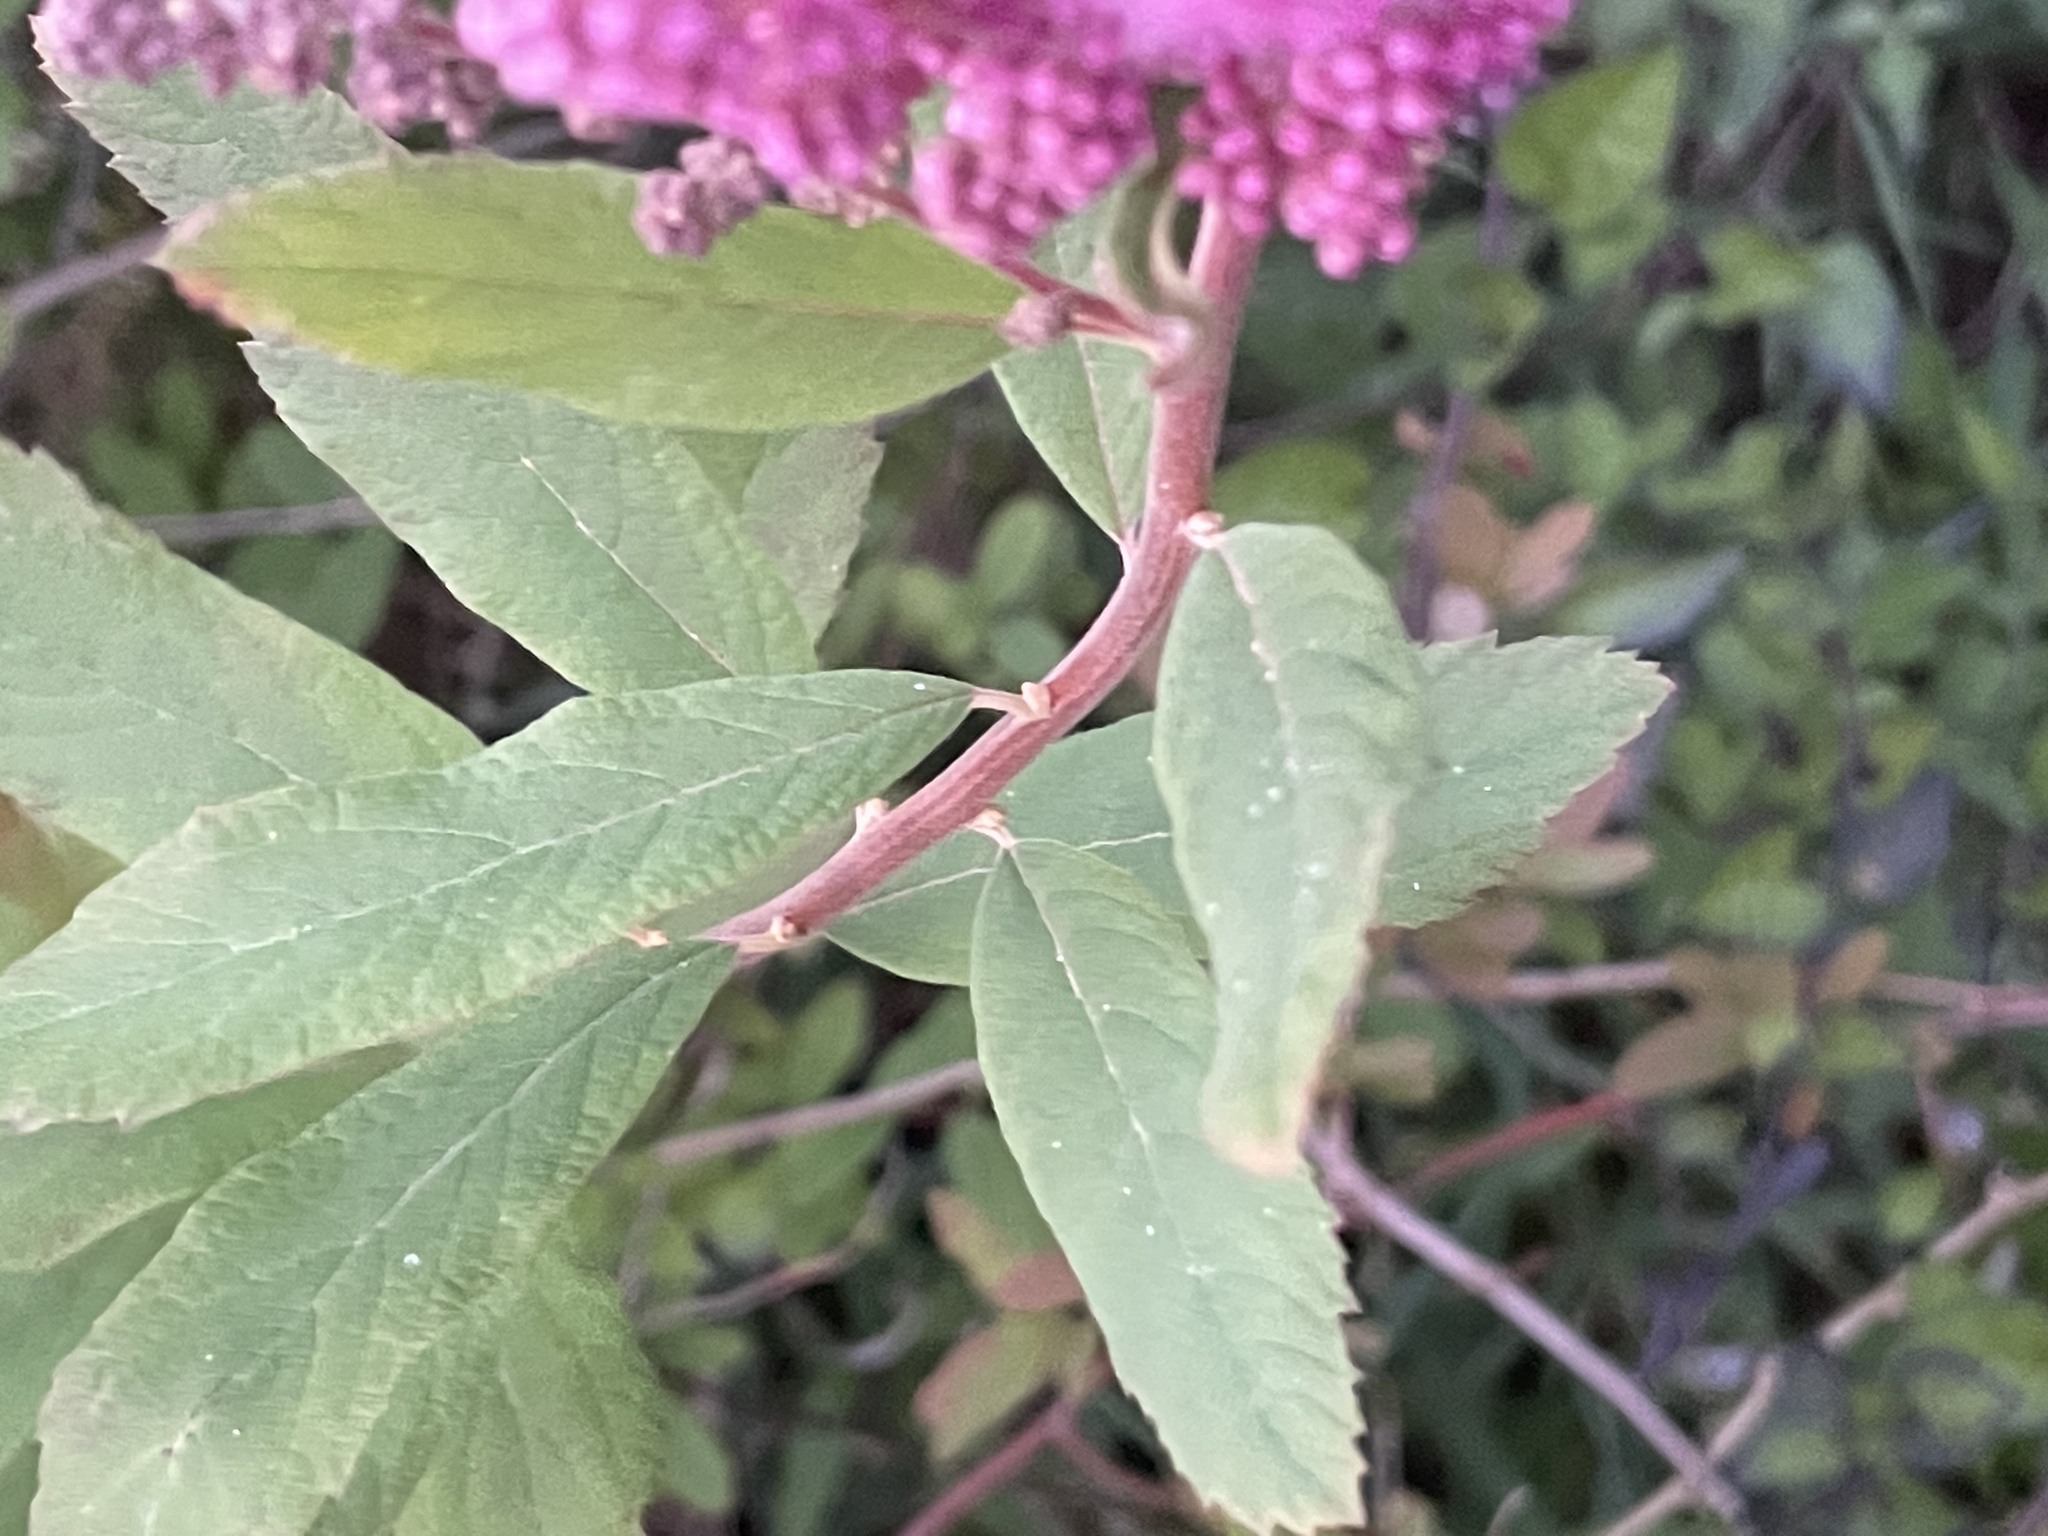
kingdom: Plantae
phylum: Tracheophyta
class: Magnoliopsida
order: Rosales
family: Rosaceae
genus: Spiraea
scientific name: Spiraea douglasii
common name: Steeplebush
